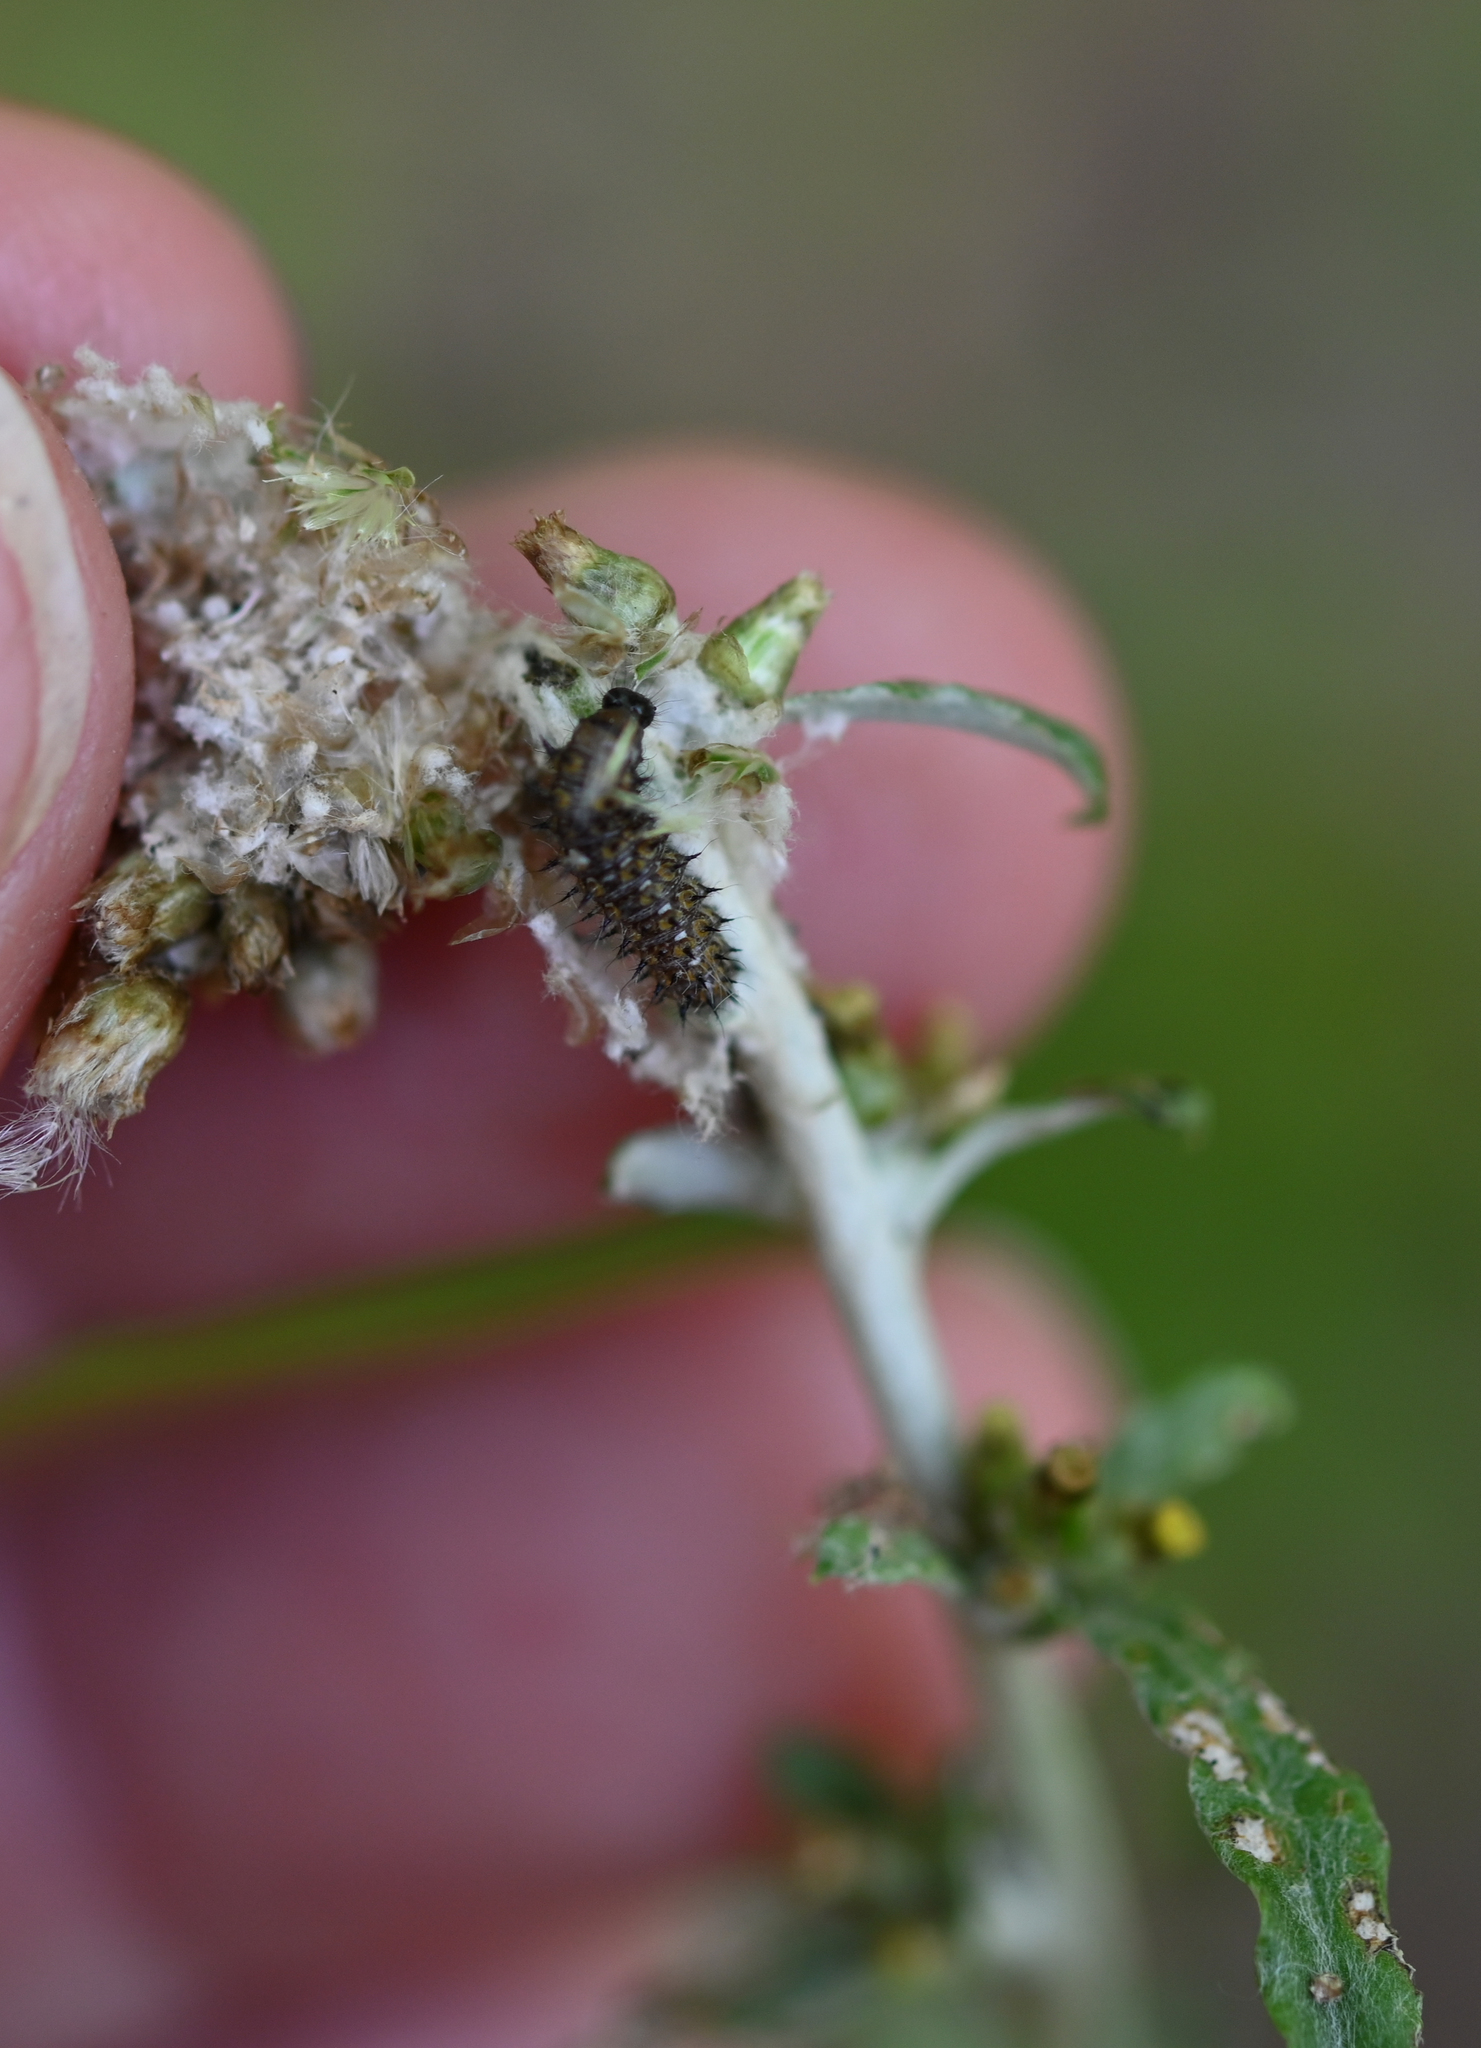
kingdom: Animalia
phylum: Arthropoda
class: Insecta
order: Lepidoptera
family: Nymphalidae
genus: Vanessa
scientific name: Vanessa virginiensis
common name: American lady
